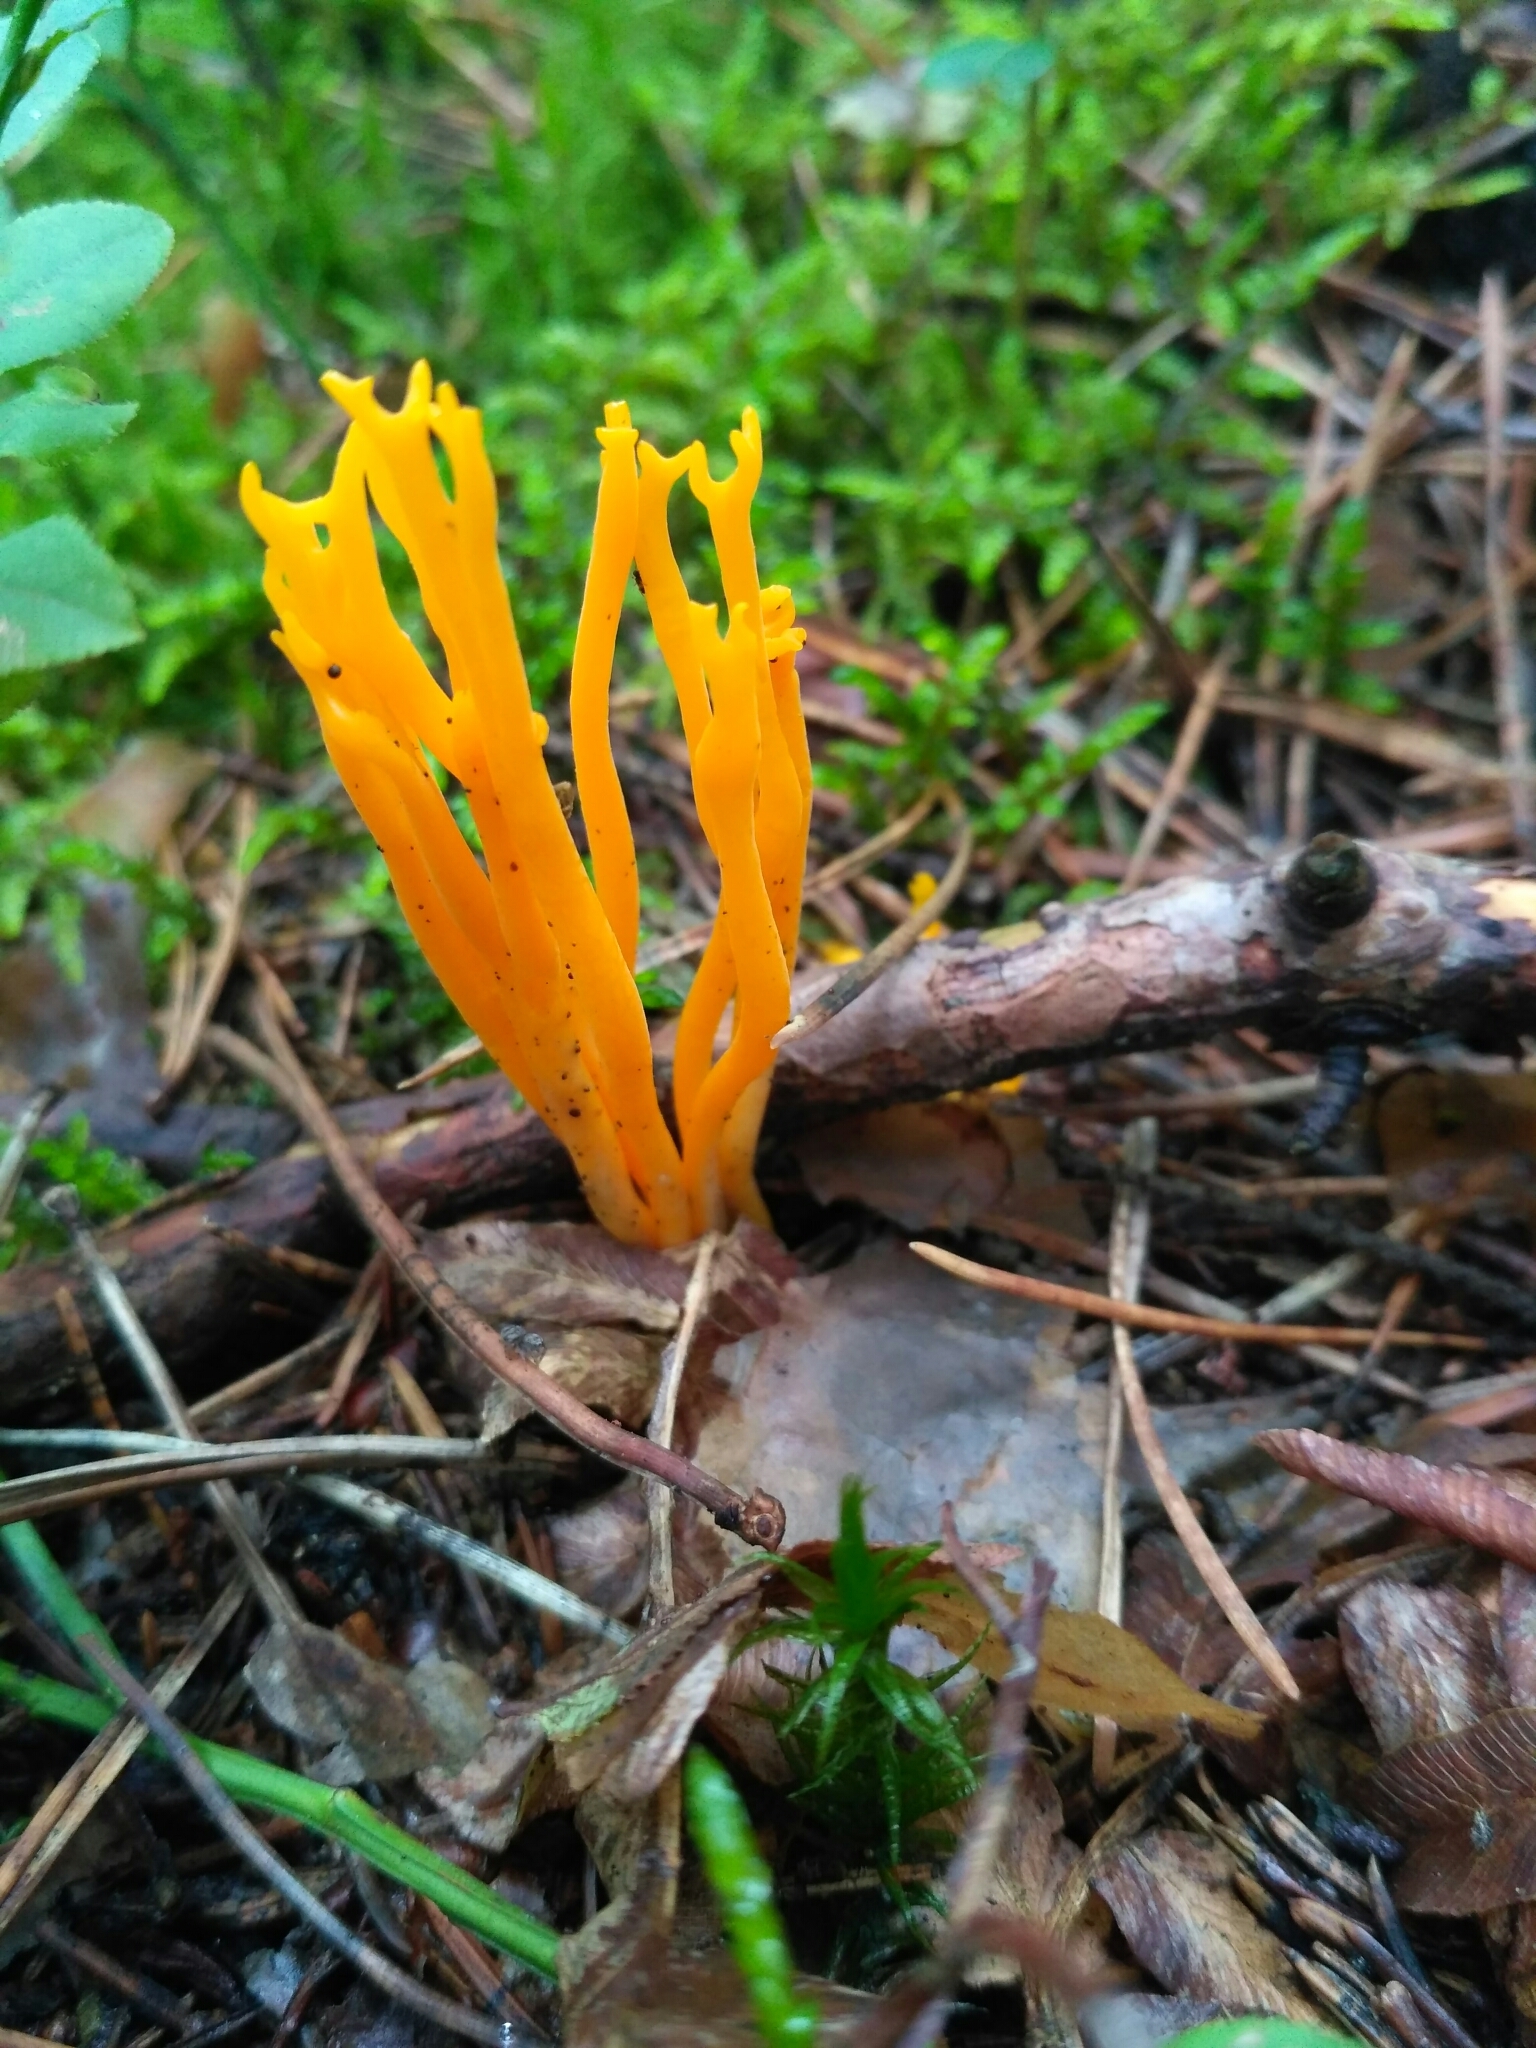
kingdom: Fungi
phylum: Basidiomycota
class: Dacrymycetes
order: Dacrymycetales
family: Dacrymycetaceae
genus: Calocera
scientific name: Calocera viscosa
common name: Yellow stagshorn
